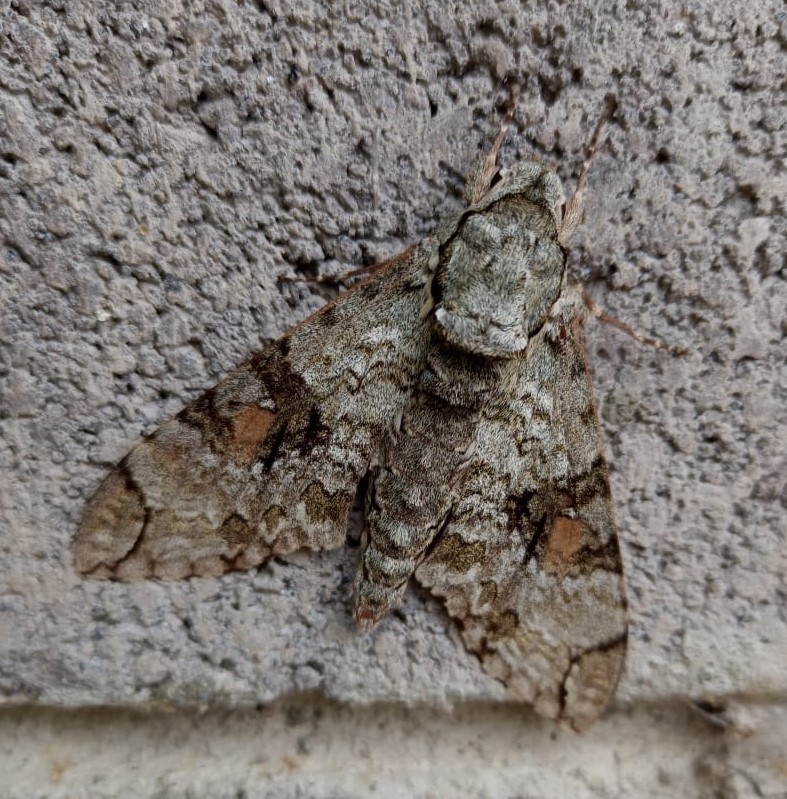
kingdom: Animalia
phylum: Arthropoda
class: Insecta
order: Lepidoptera
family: Sphingidae
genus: Manduca
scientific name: Manduca florestan
